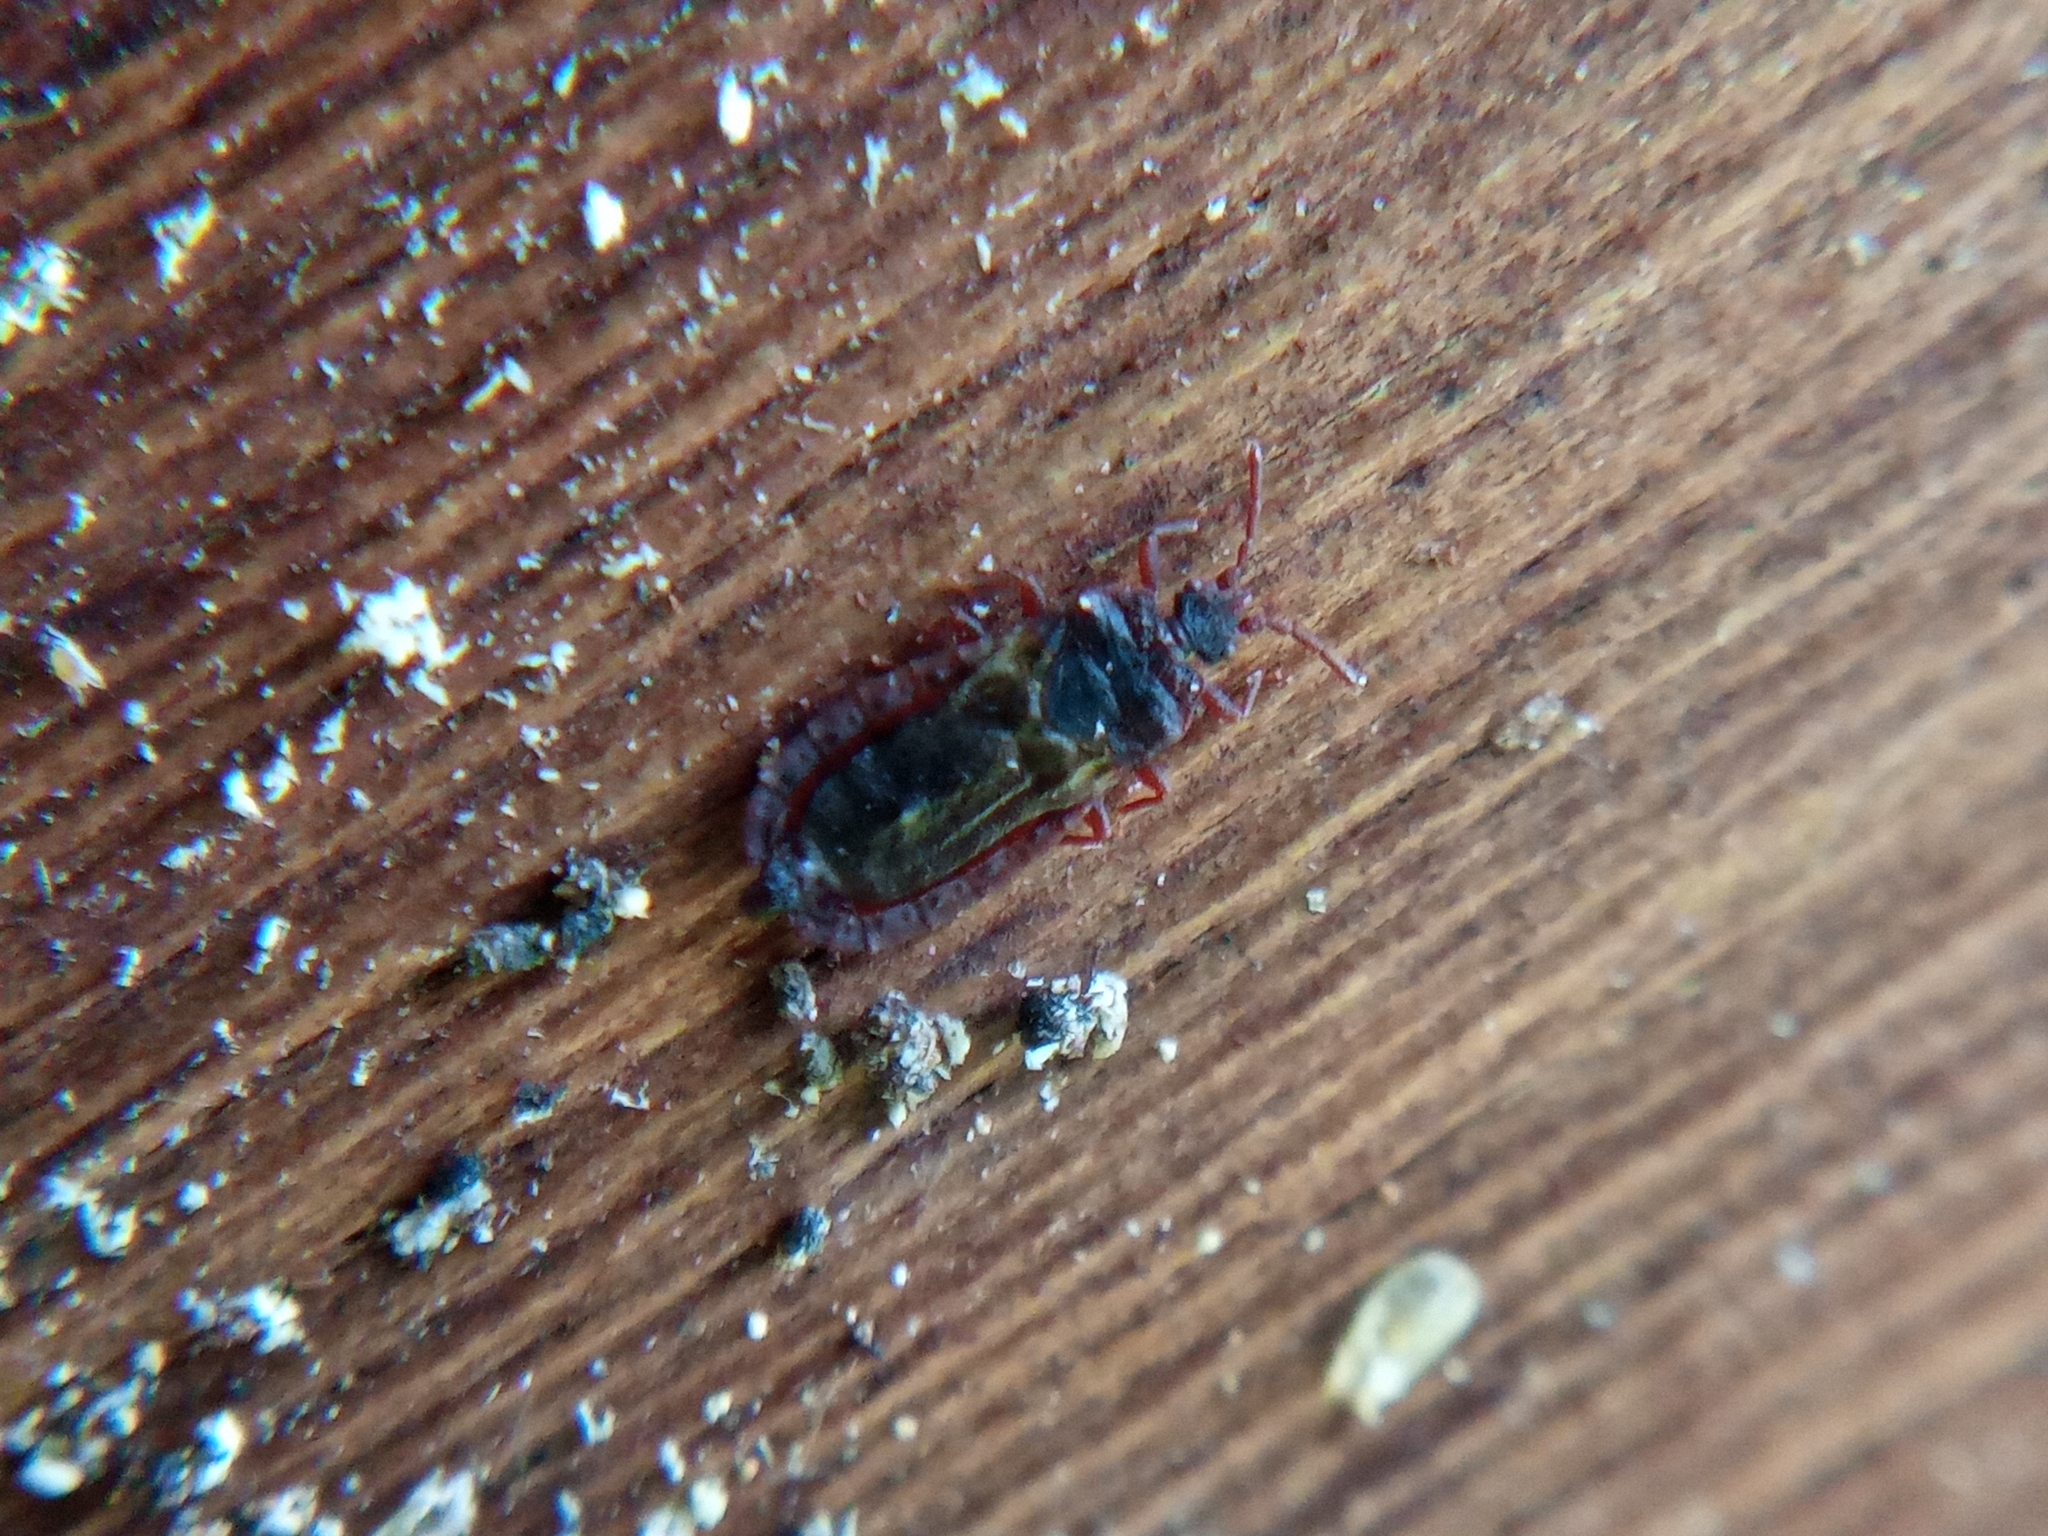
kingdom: Animalia
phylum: Arthropoda
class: Insecta
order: Hemiptera
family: Aradidae
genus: Aneurus
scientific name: Aneurus laevis
